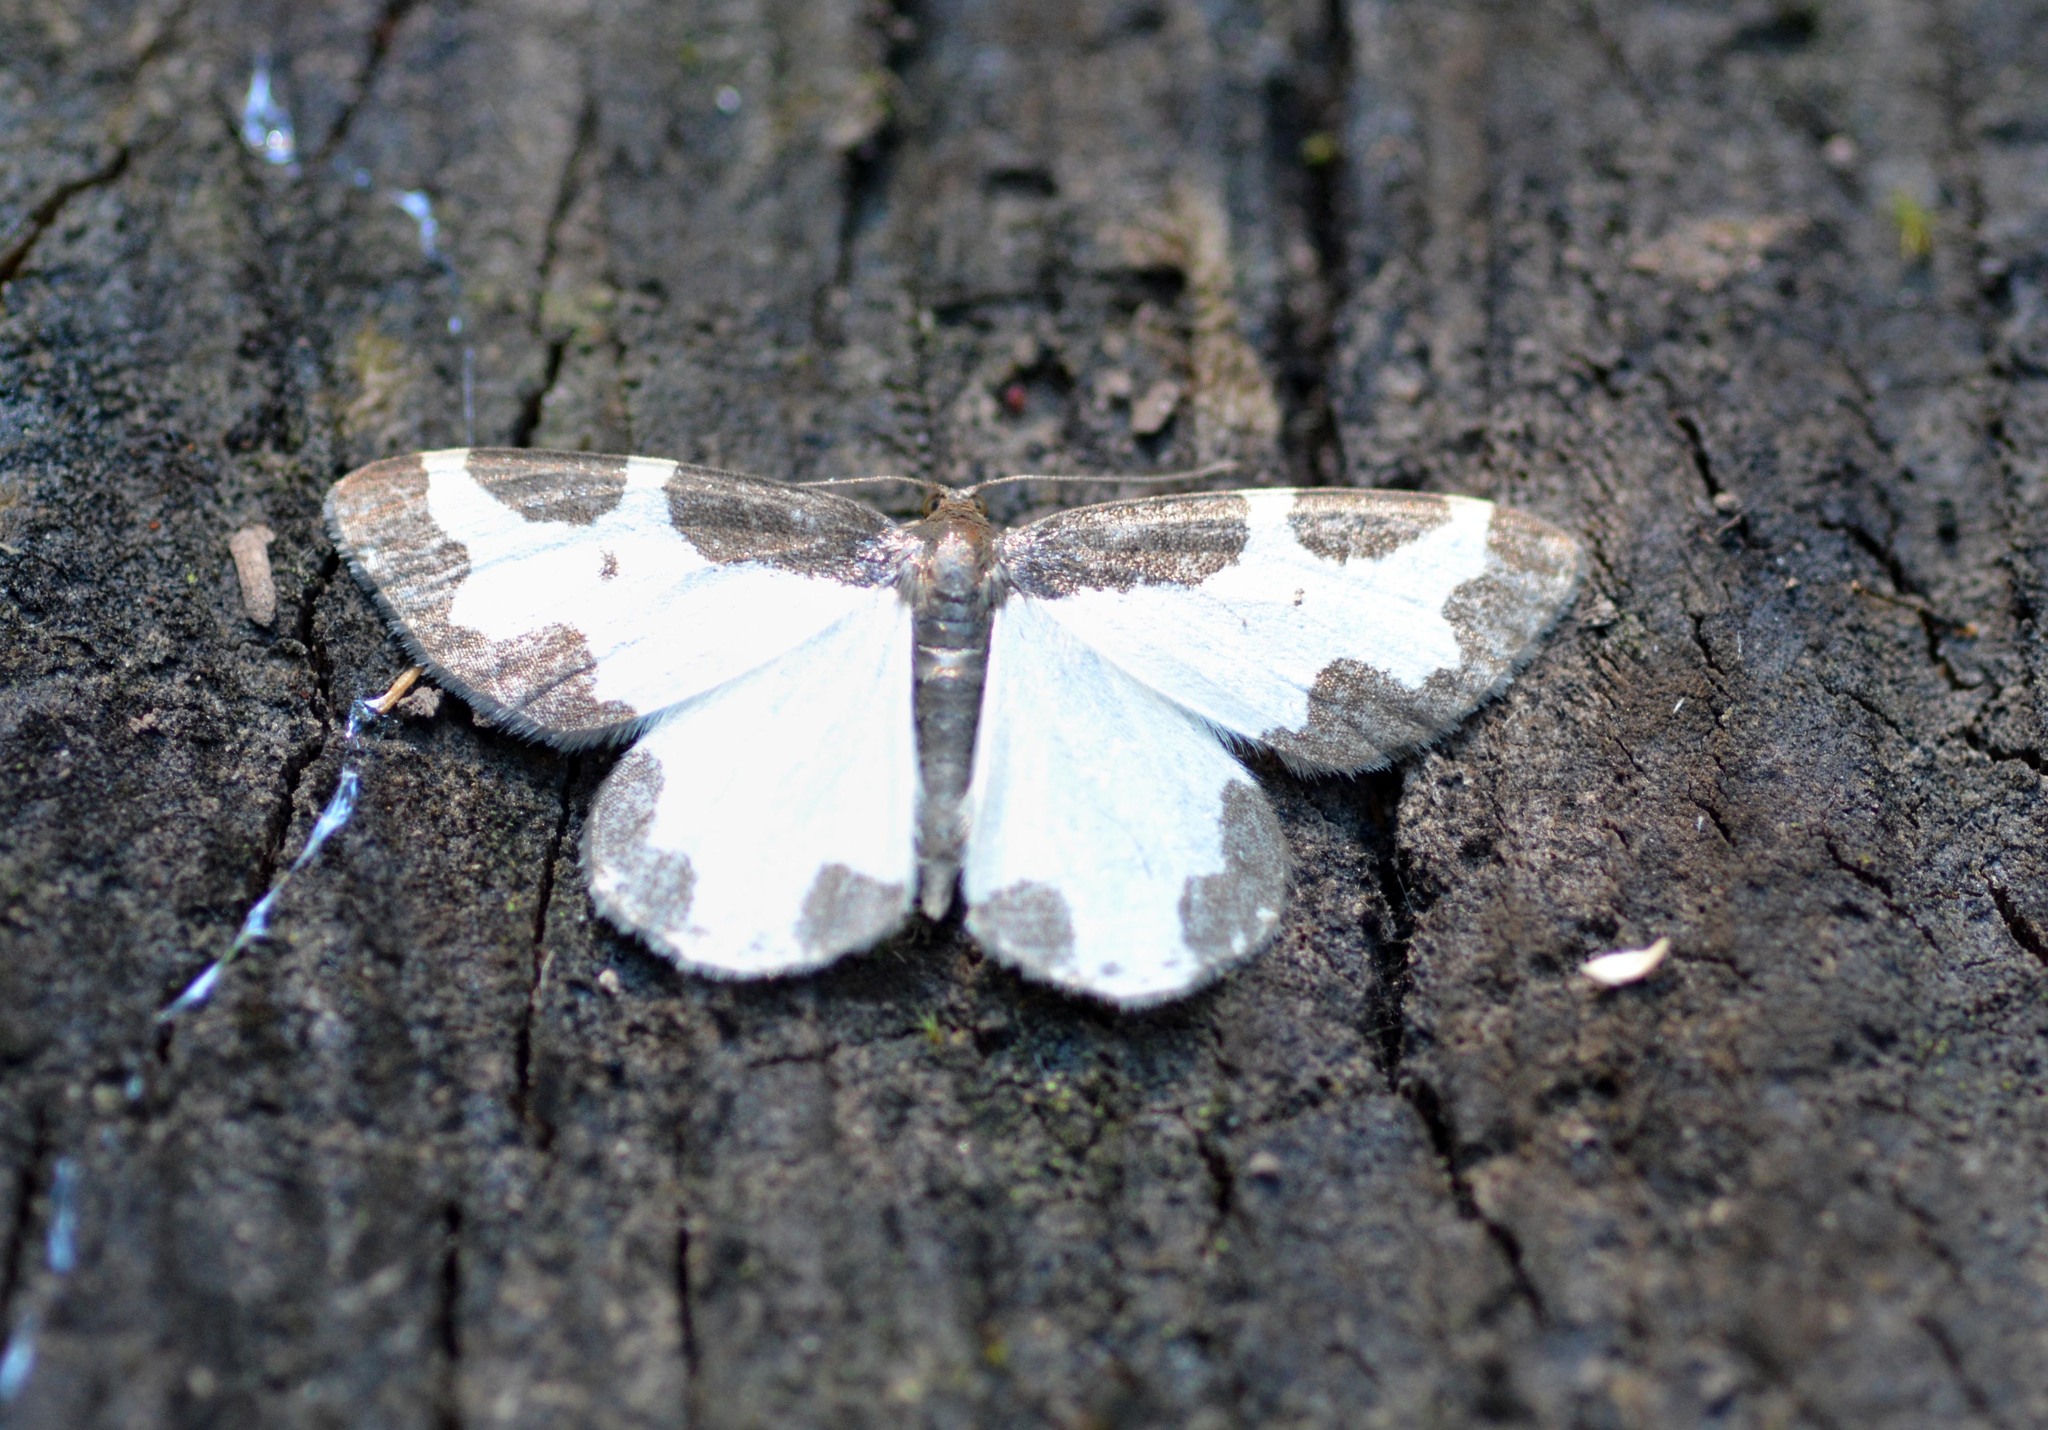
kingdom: Animalia
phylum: Arthropoda
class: Insecta
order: Lepidoptera
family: Geometridae
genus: Lomaspilis
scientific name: Lomaspilis marginata
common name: Clouded border
